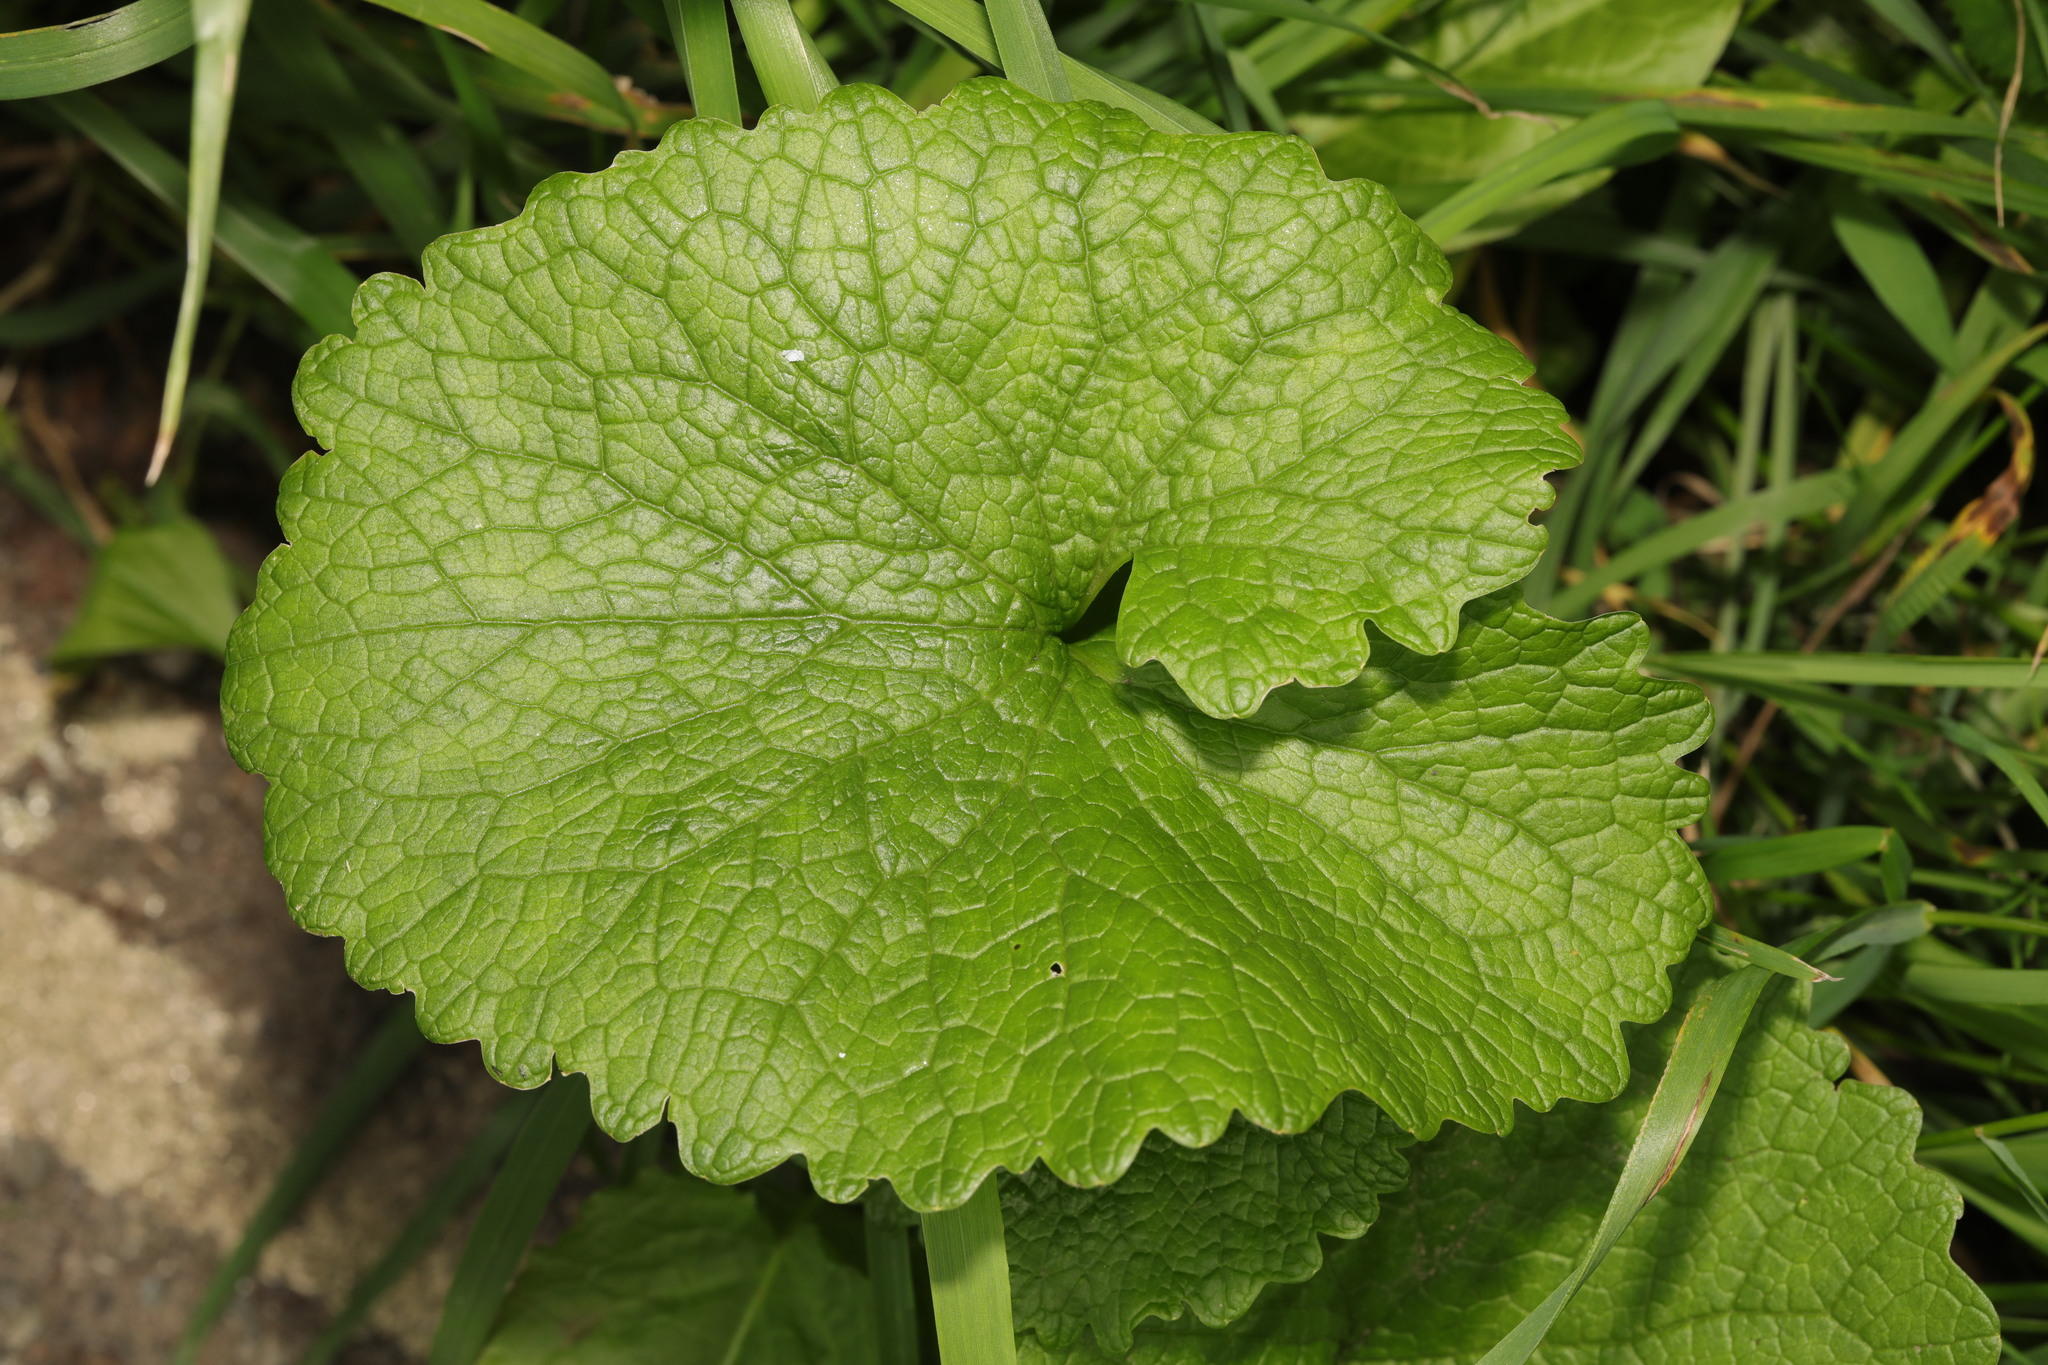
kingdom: Plantae
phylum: Tracheophyta
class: Magnoliopsida
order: Brassicales
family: Brassicaceae
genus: Alliaria
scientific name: Alliaria petiolata
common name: Garlic mustard
